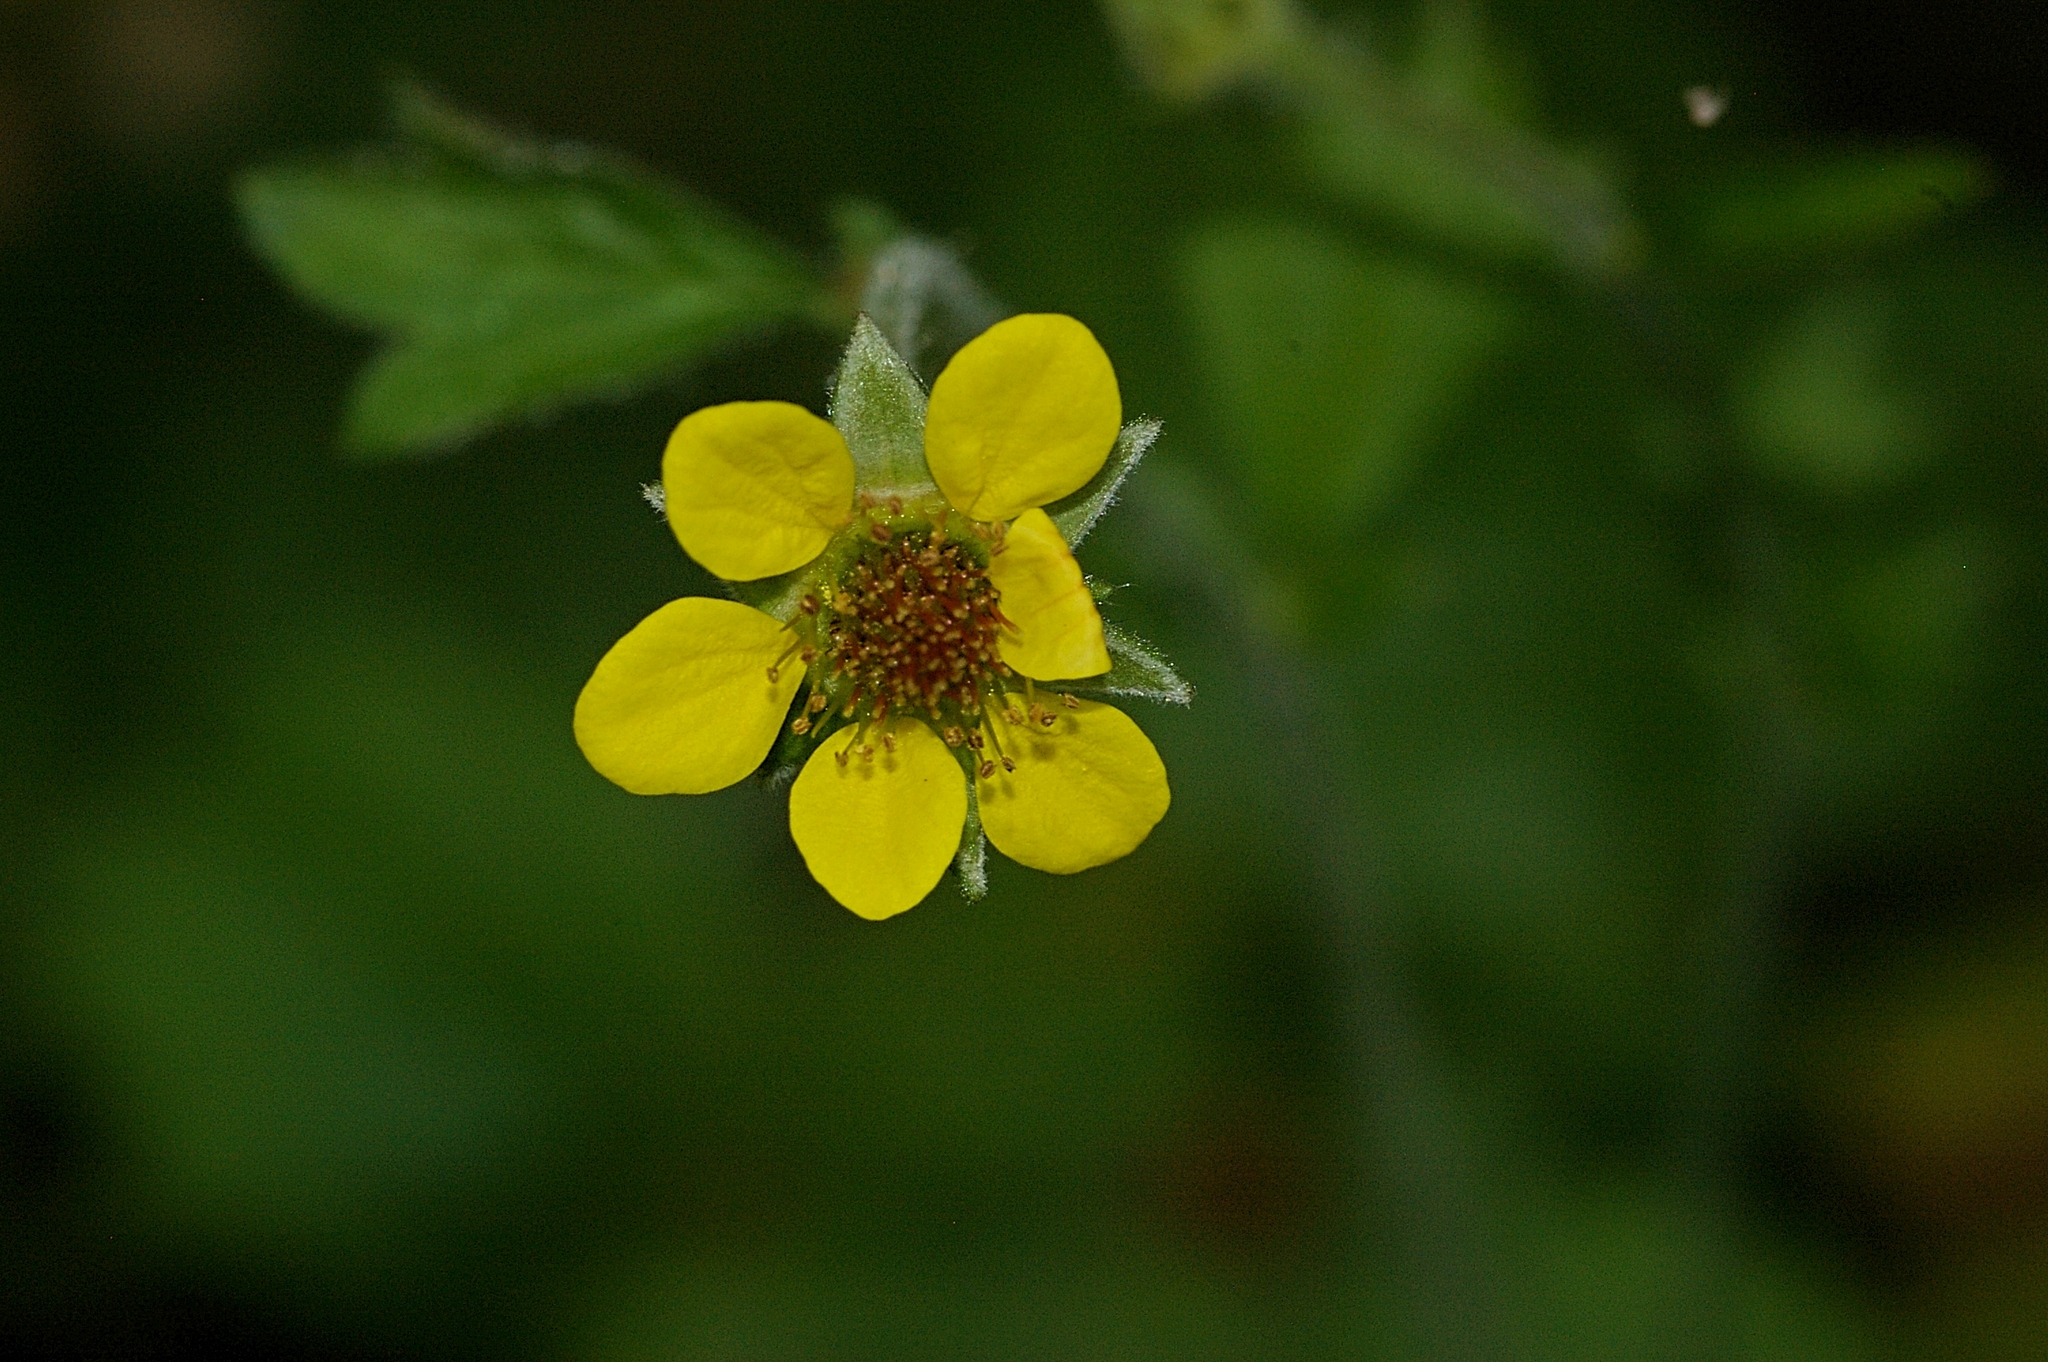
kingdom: Plantae
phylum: Tracheophyta
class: Magnoliopsida
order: Rosales
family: Rosaceae
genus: Geum
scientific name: Geum urbanum
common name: Wood avens
